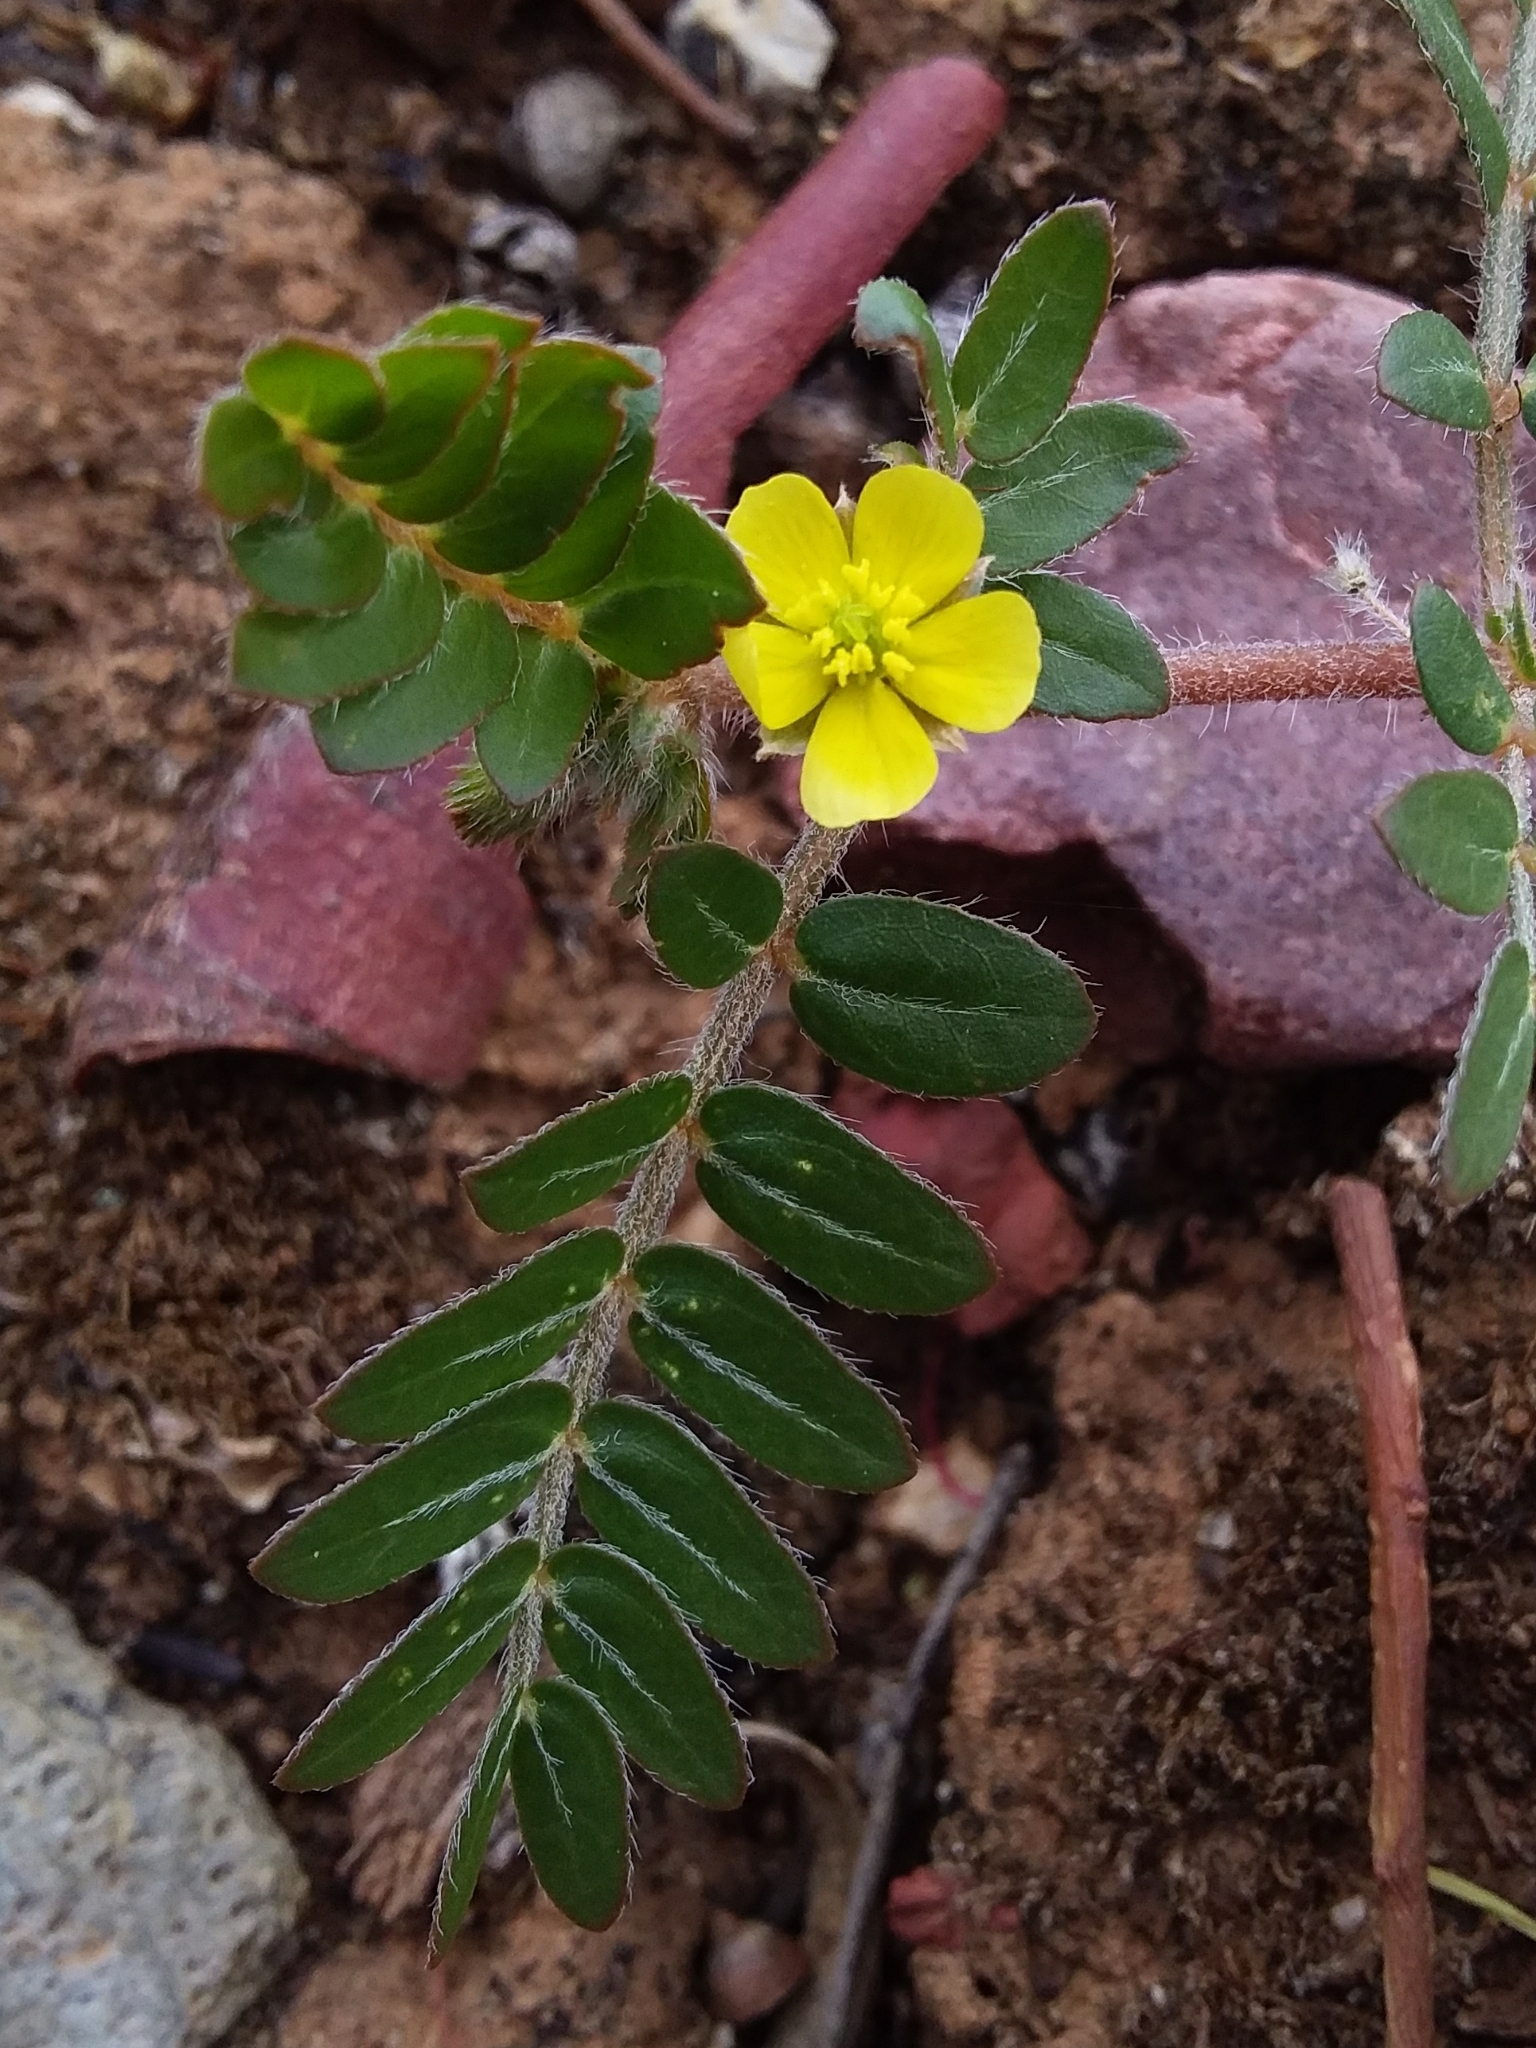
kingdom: Plantae
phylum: Tracheophyta
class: Magnoliopsida
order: Zygophyllales
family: Zygophyllaceae
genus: Tribulus
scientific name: Tribulus terrestris
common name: Puncturevine
